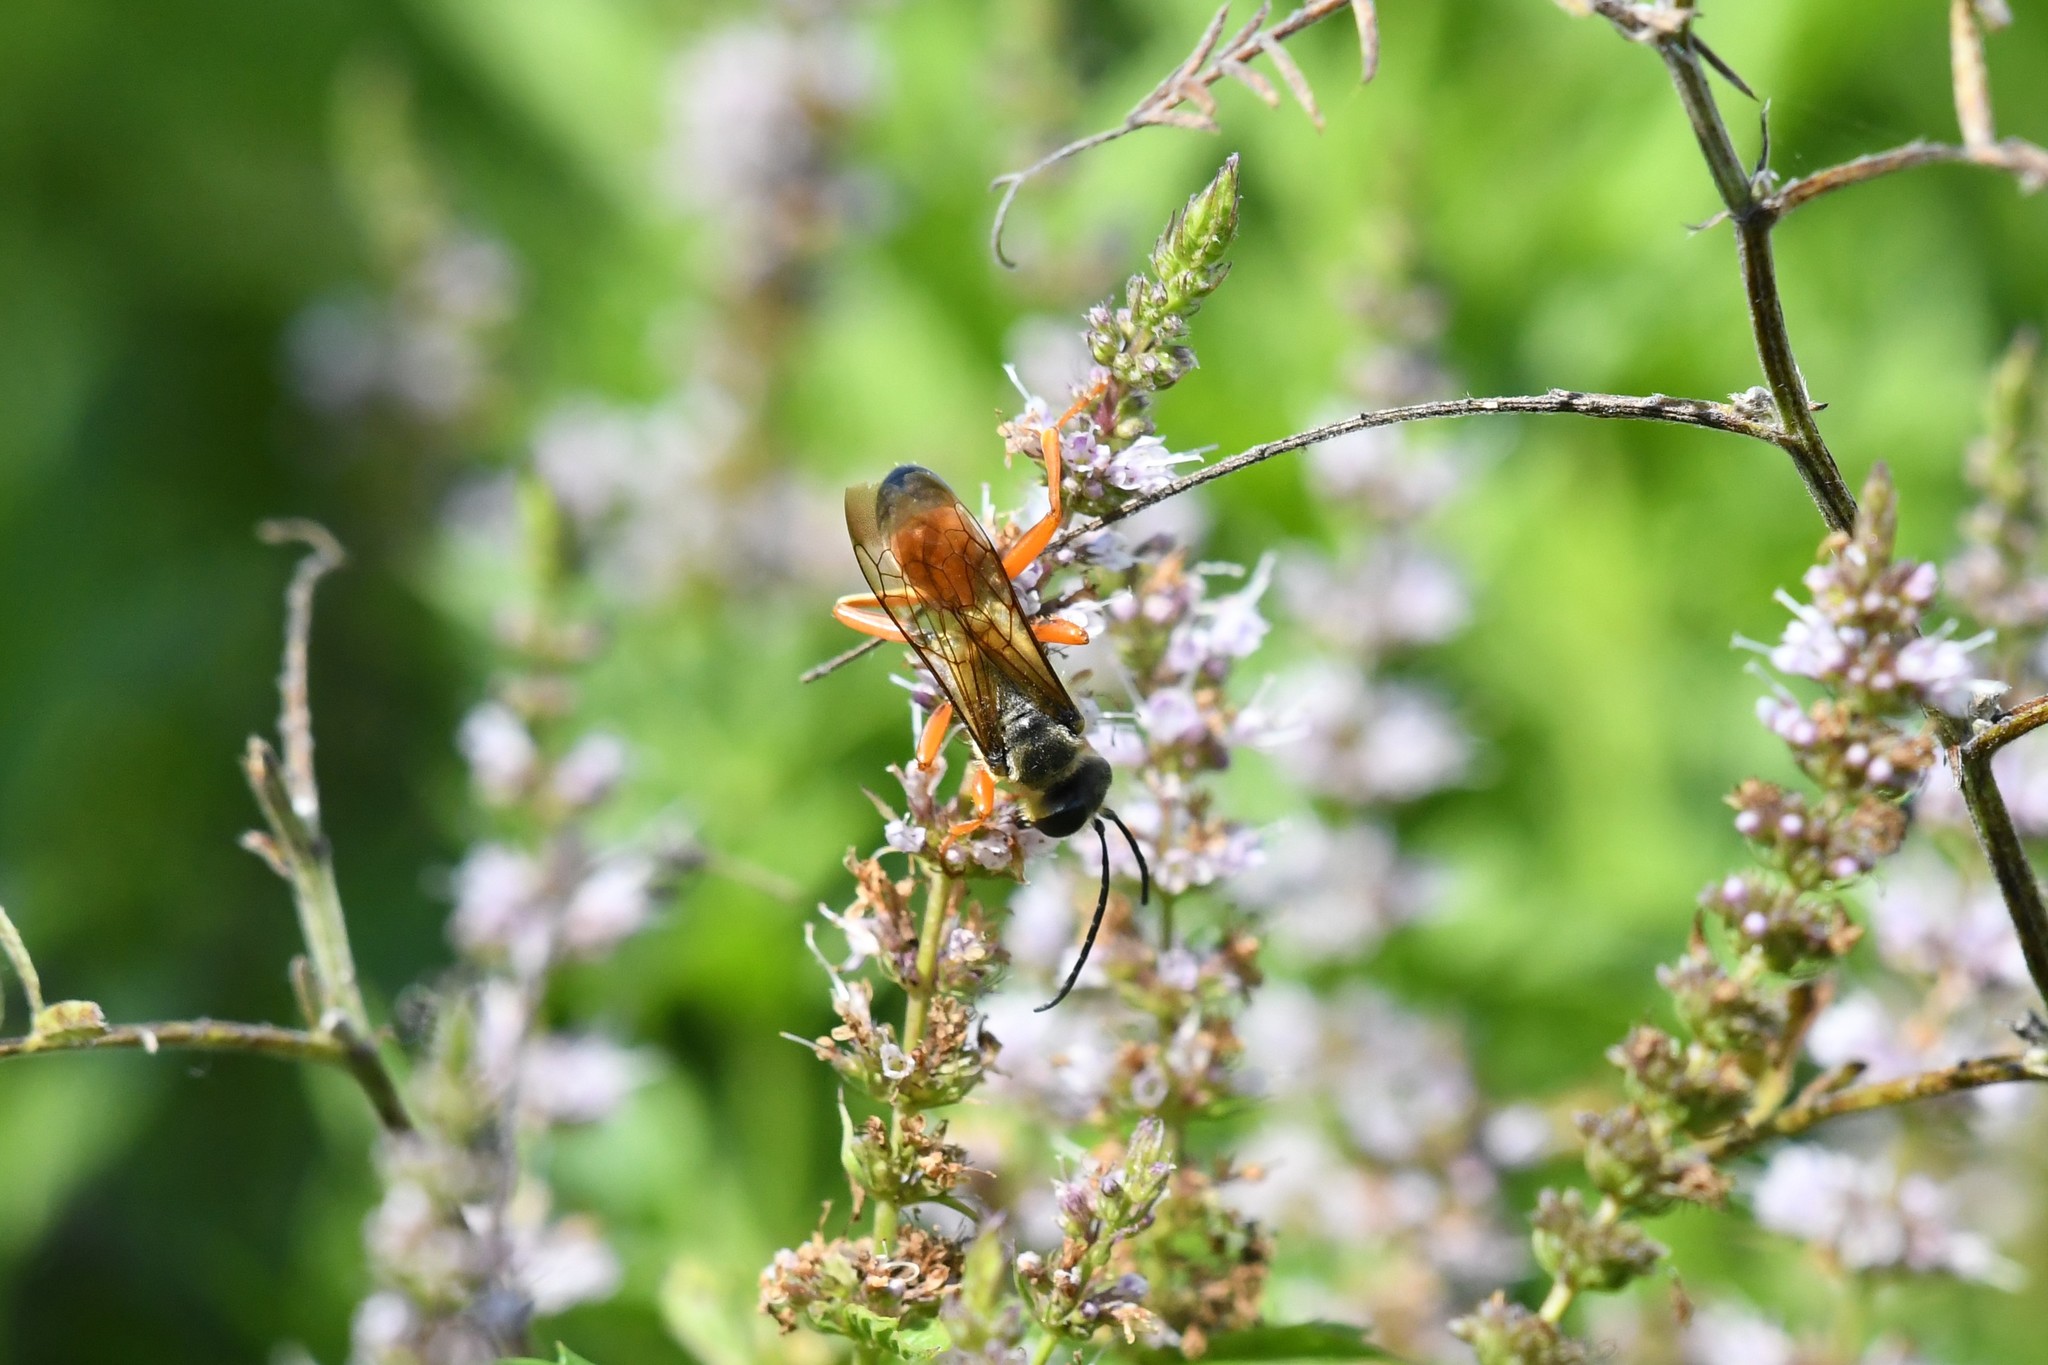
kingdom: Animalia
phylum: Arthropoda
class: Insecta
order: Hymenoptera
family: Sphecidae
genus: Sphex
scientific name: Sphex ichneumoneus
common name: Great golden digger wasp
